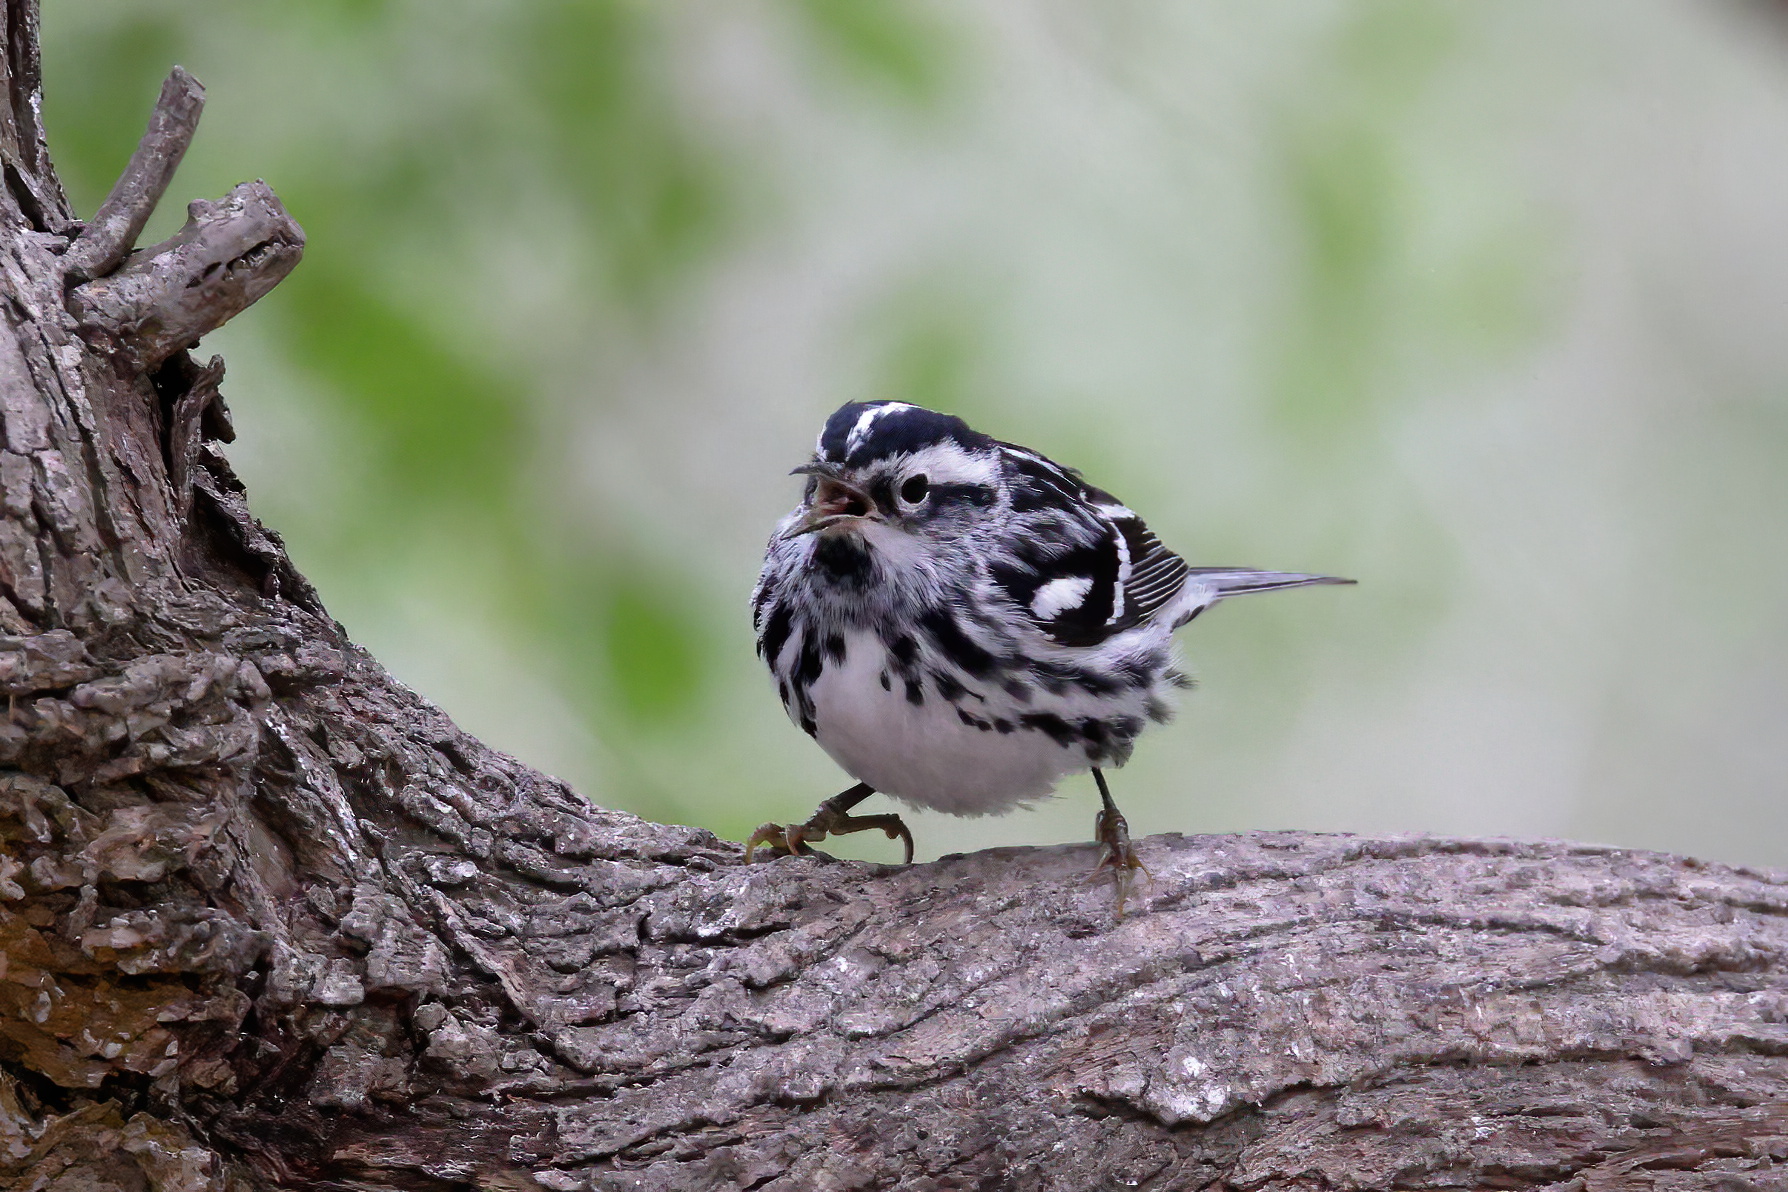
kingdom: Animalia
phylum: Chordata
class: Aves
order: Passeriformes
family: Parulidae
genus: Mniotilta
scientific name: Mniotilta varia
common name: Black-and-white warbler
